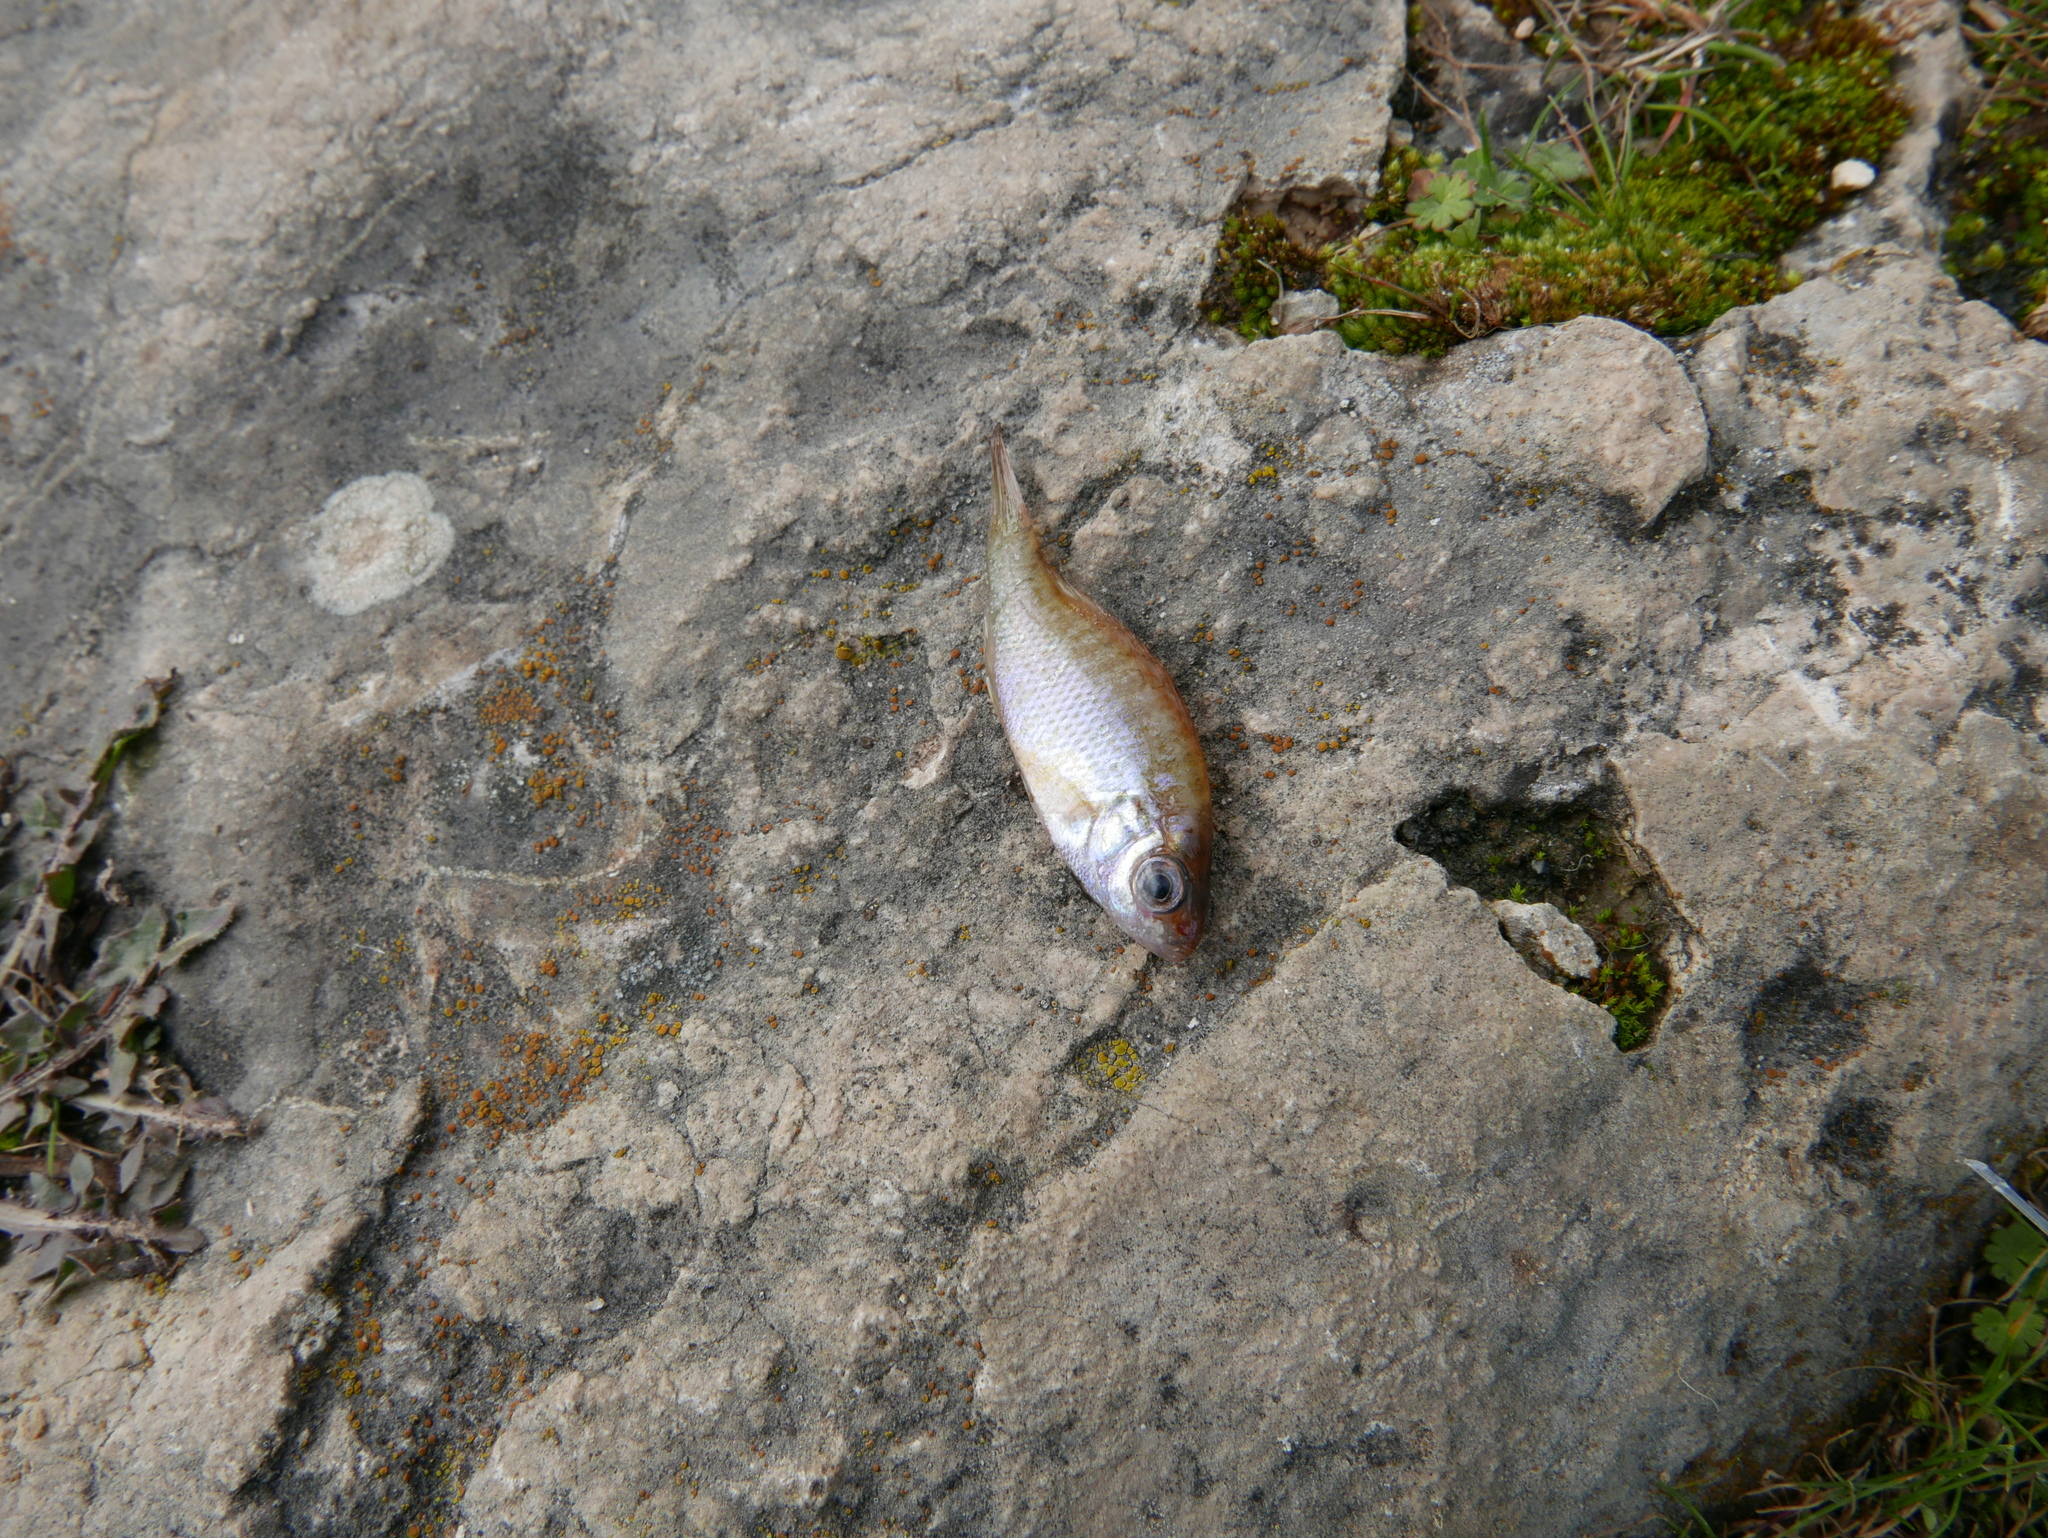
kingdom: Animalia
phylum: Chordata
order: Perciformes
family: Centrarchidae
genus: Lepomis
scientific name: Lepomis gibbosus
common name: Pumpkinseed
